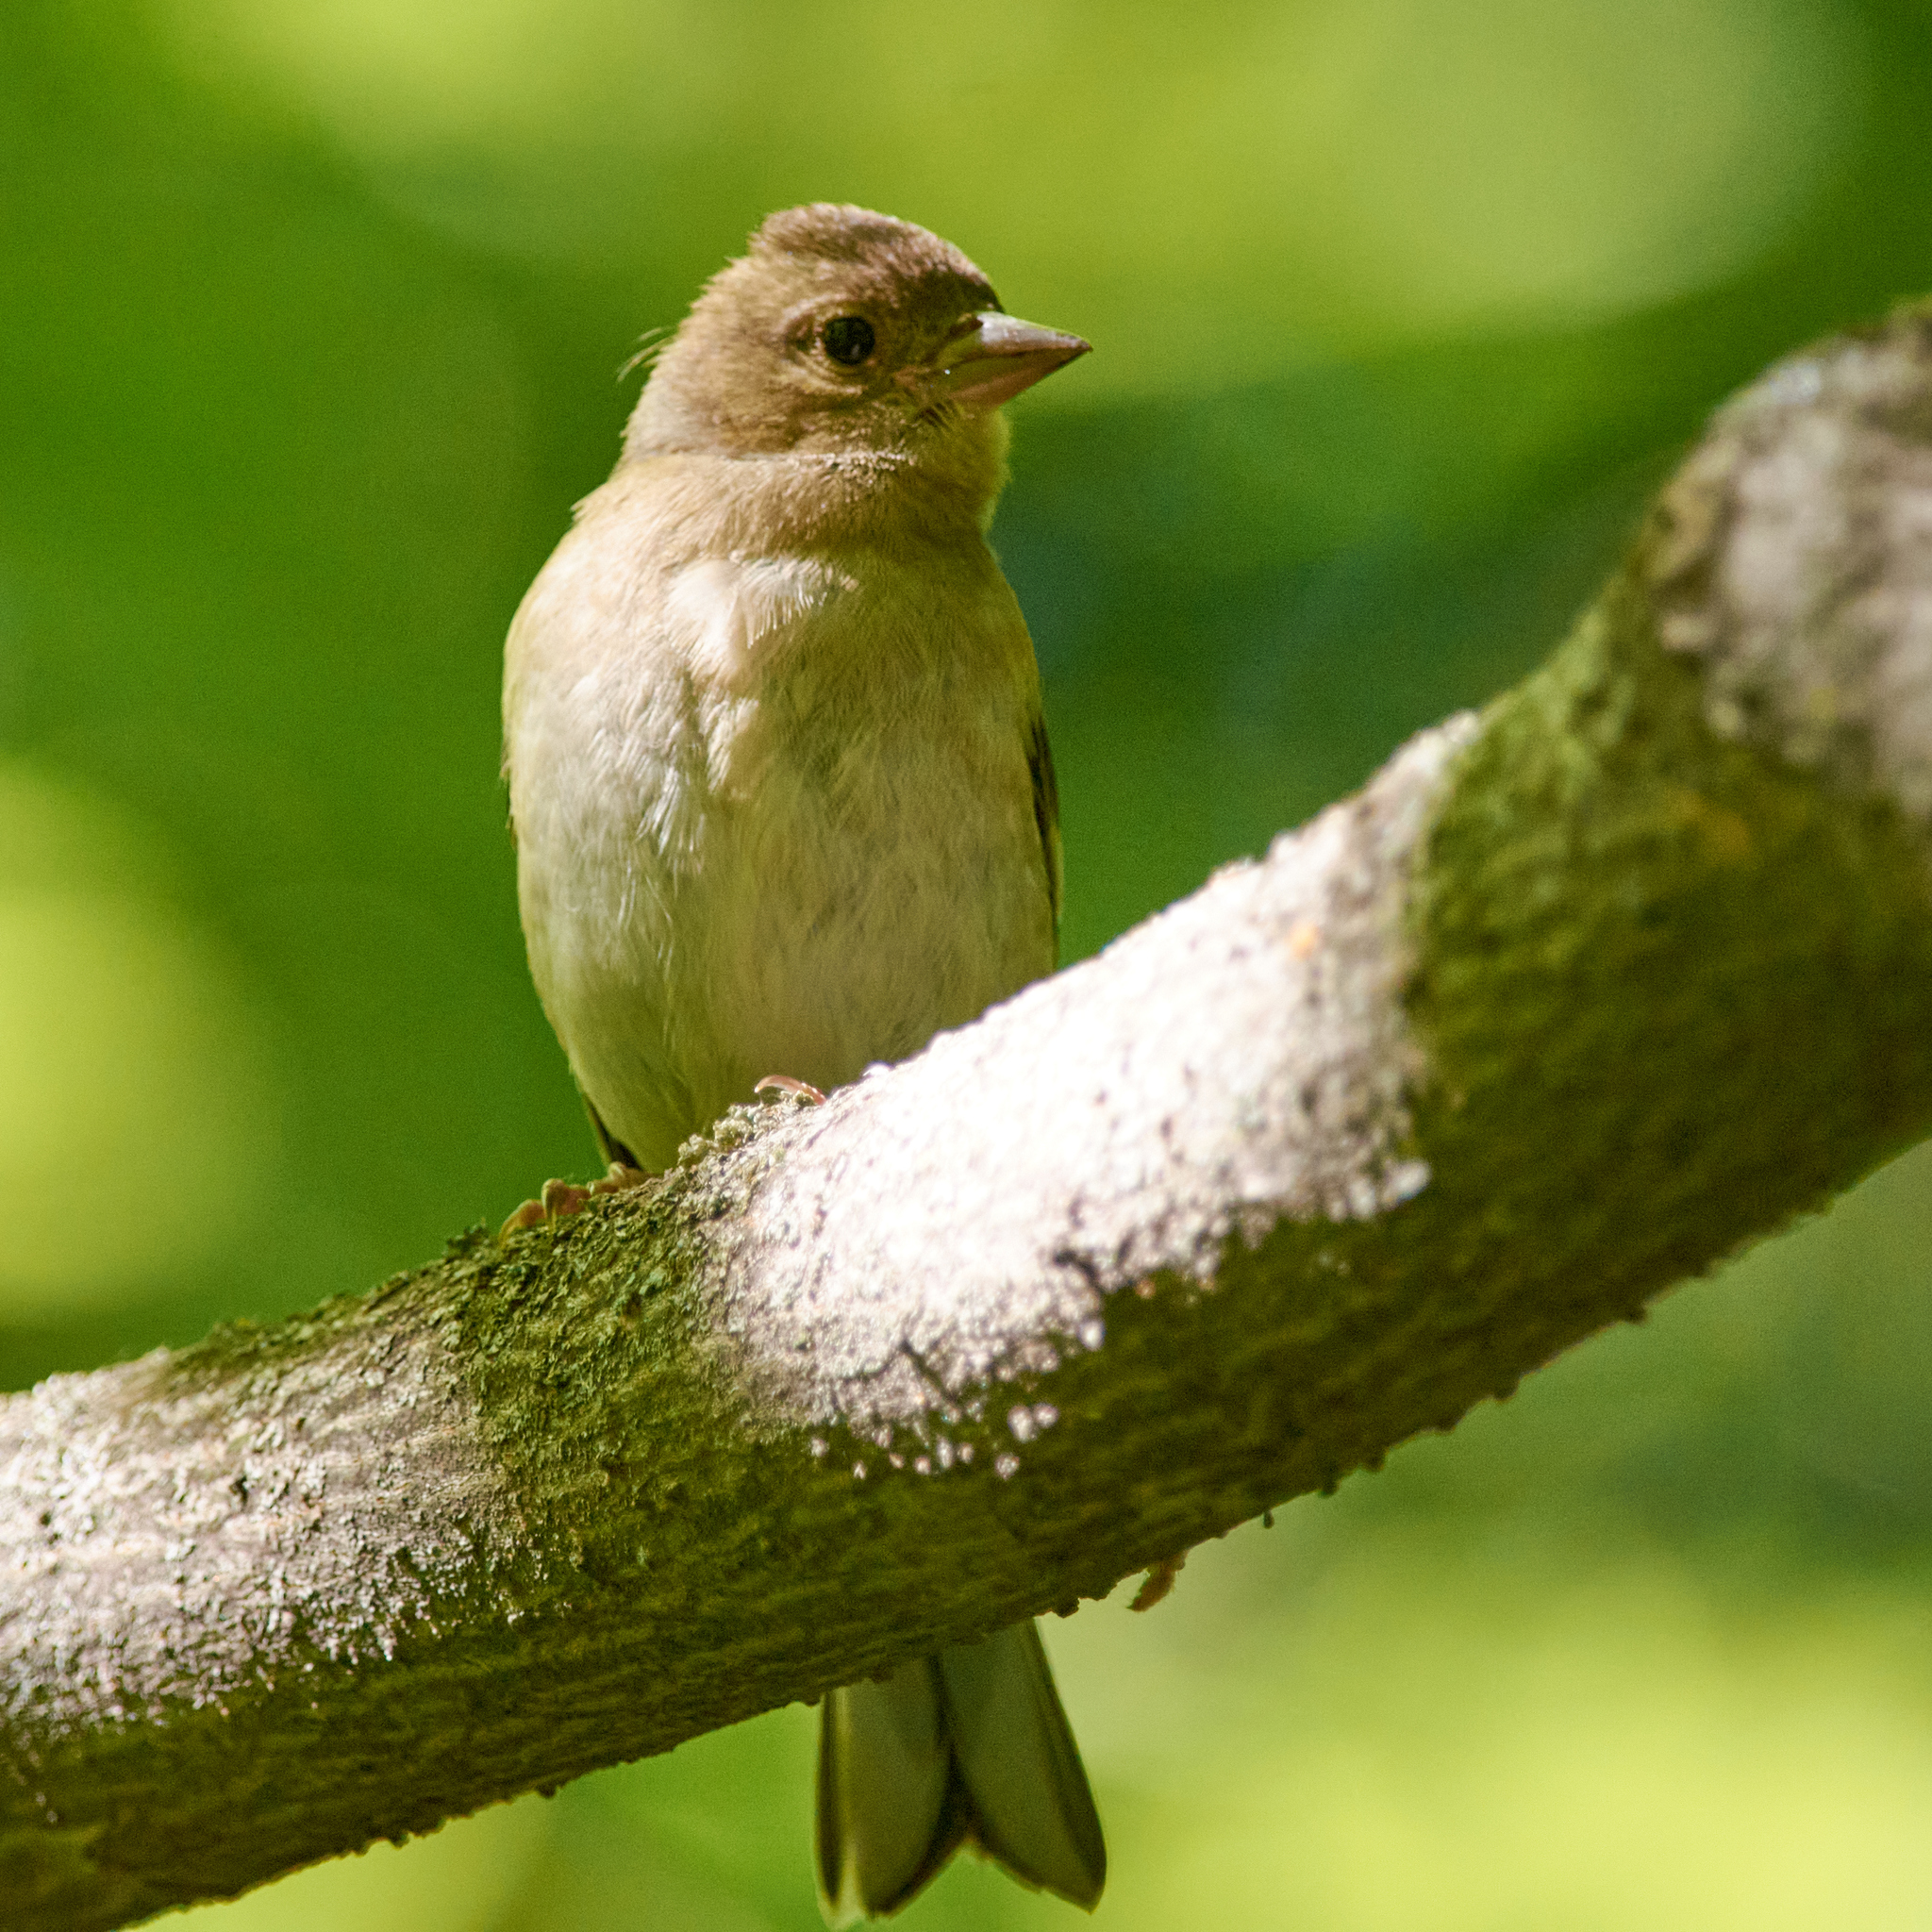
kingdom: Animalia
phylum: Chordata
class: Aves
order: Passeriformes
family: Fringillidae
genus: Fringilla
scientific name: Fringilla coelebs
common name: Common chaffinch
